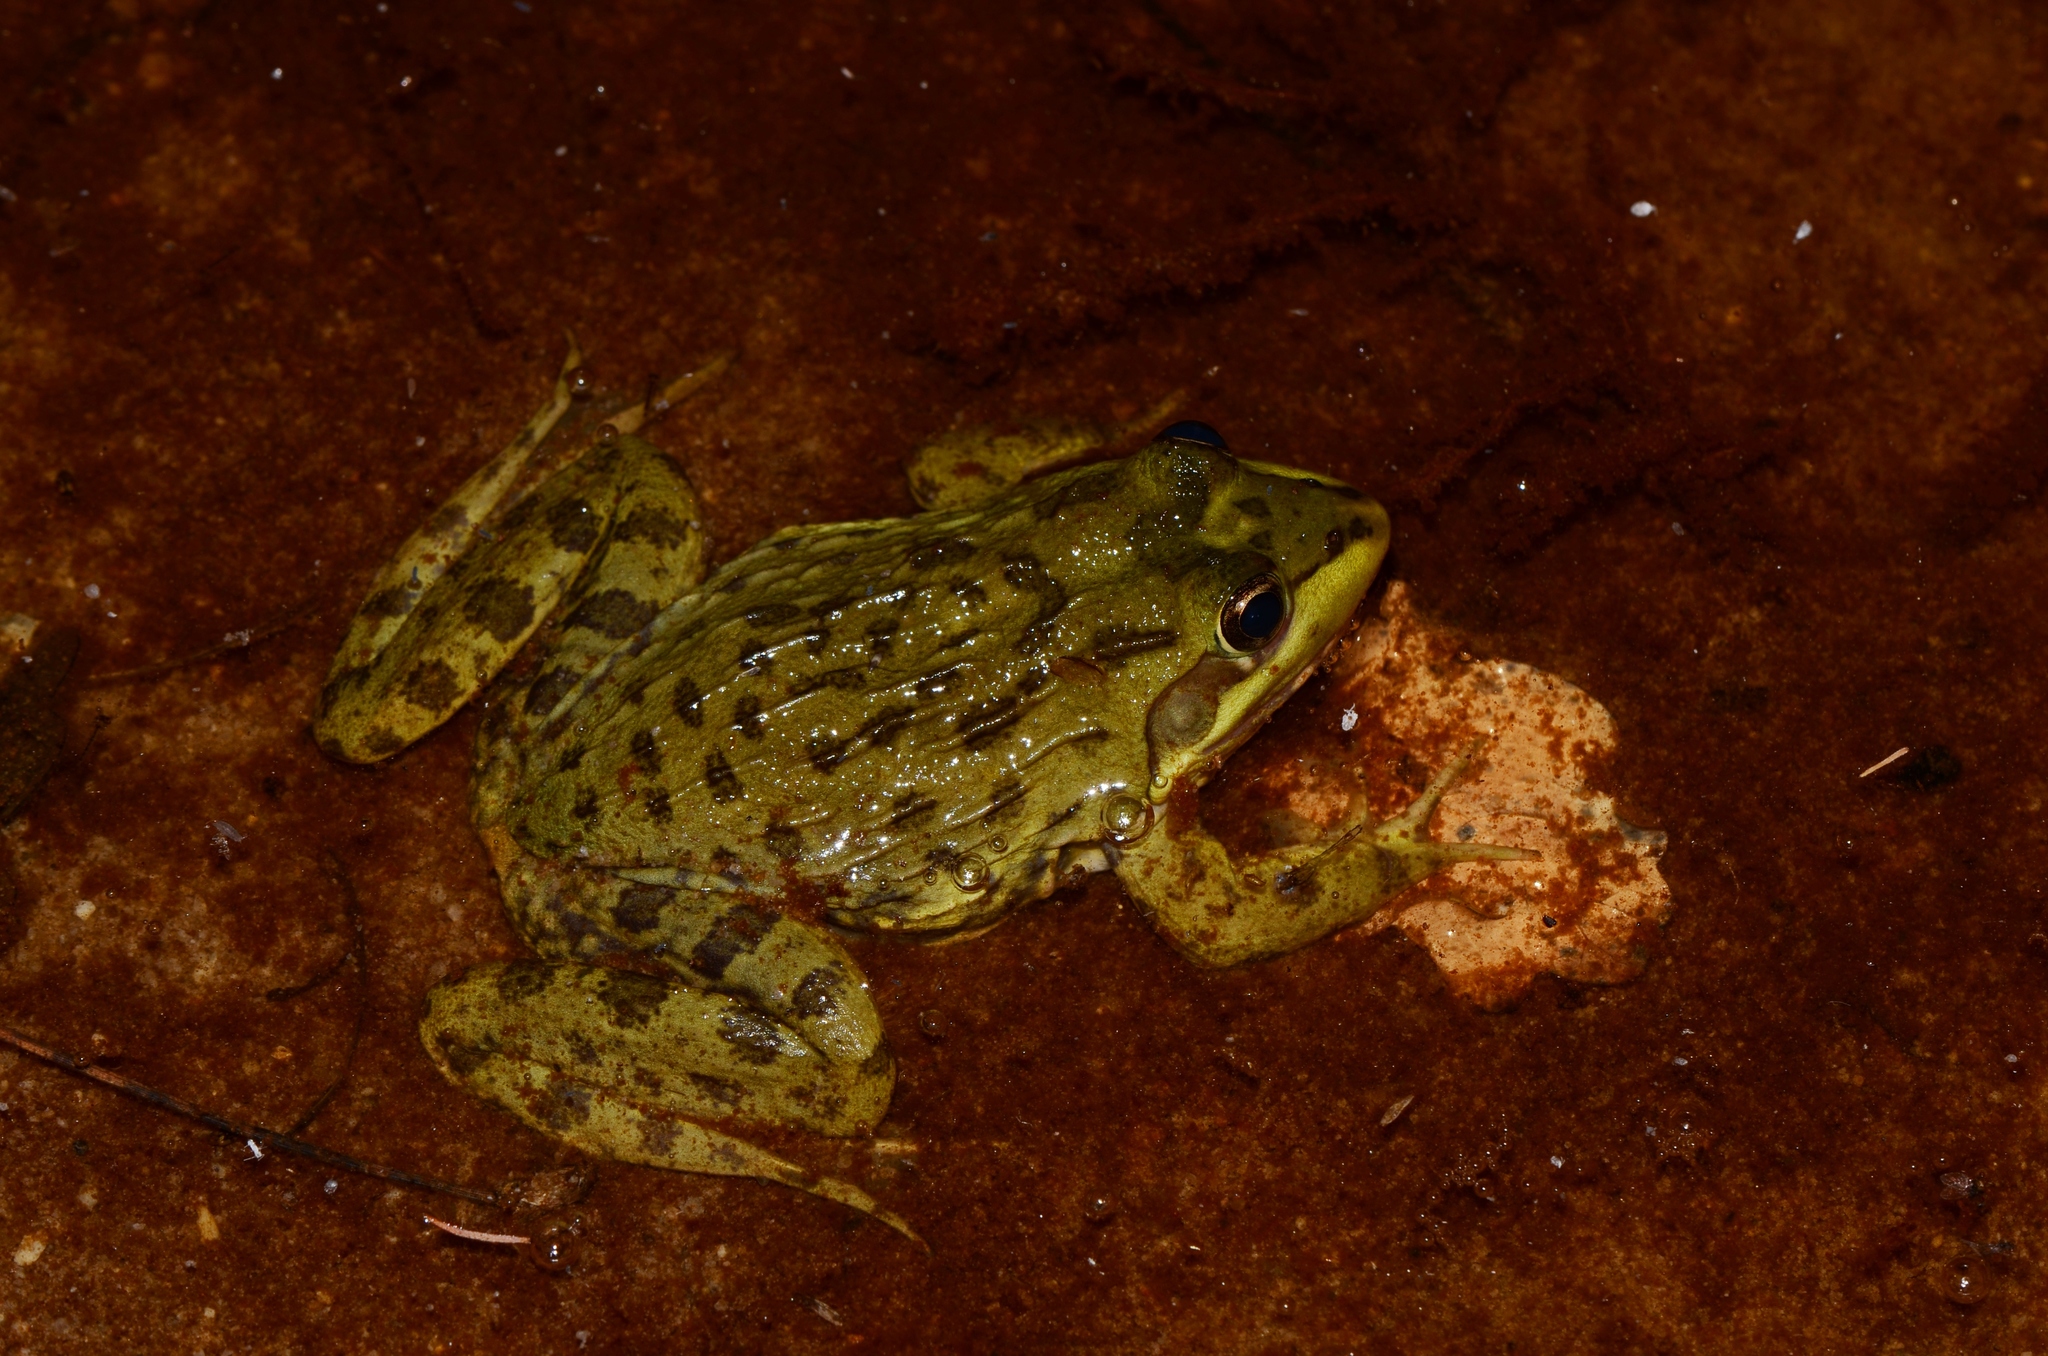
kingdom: Animalia
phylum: Chordata
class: Amphibia
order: Anura
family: Pyxicephalidae
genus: Amietia
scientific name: Amietia fuscigula
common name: Cape rana
